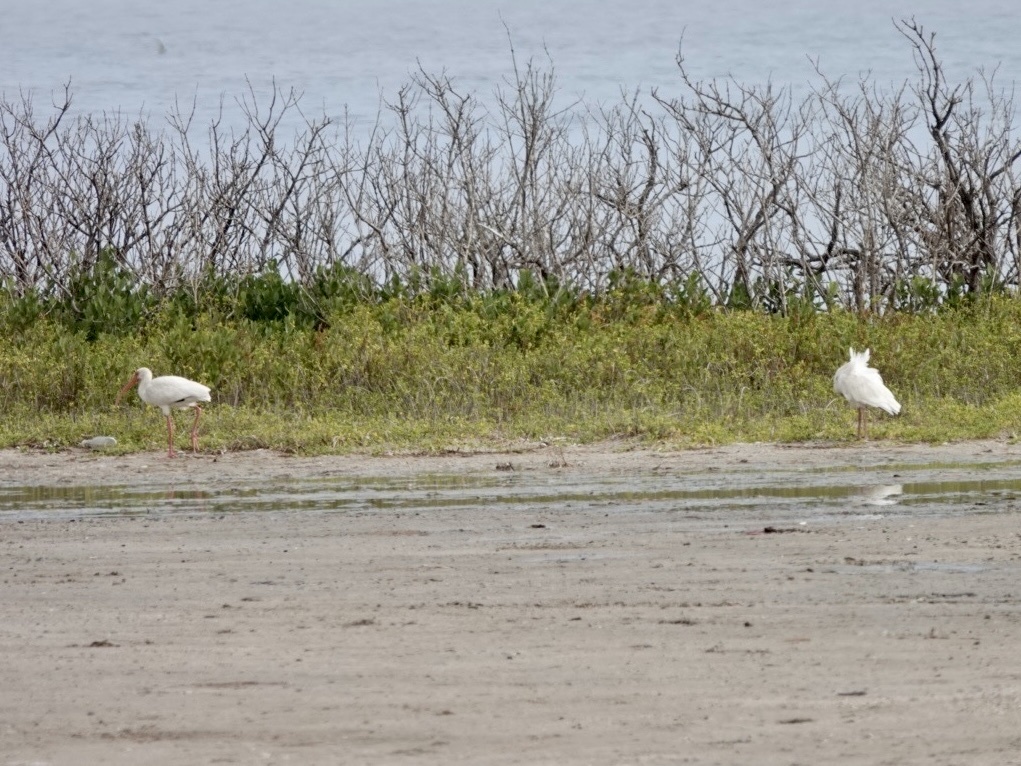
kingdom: Animalia
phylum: Chordata
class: Aves
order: Pelecaniformes
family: Threskiornithidae
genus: Eudocimus
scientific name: Eudocimus albus
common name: White ibis
